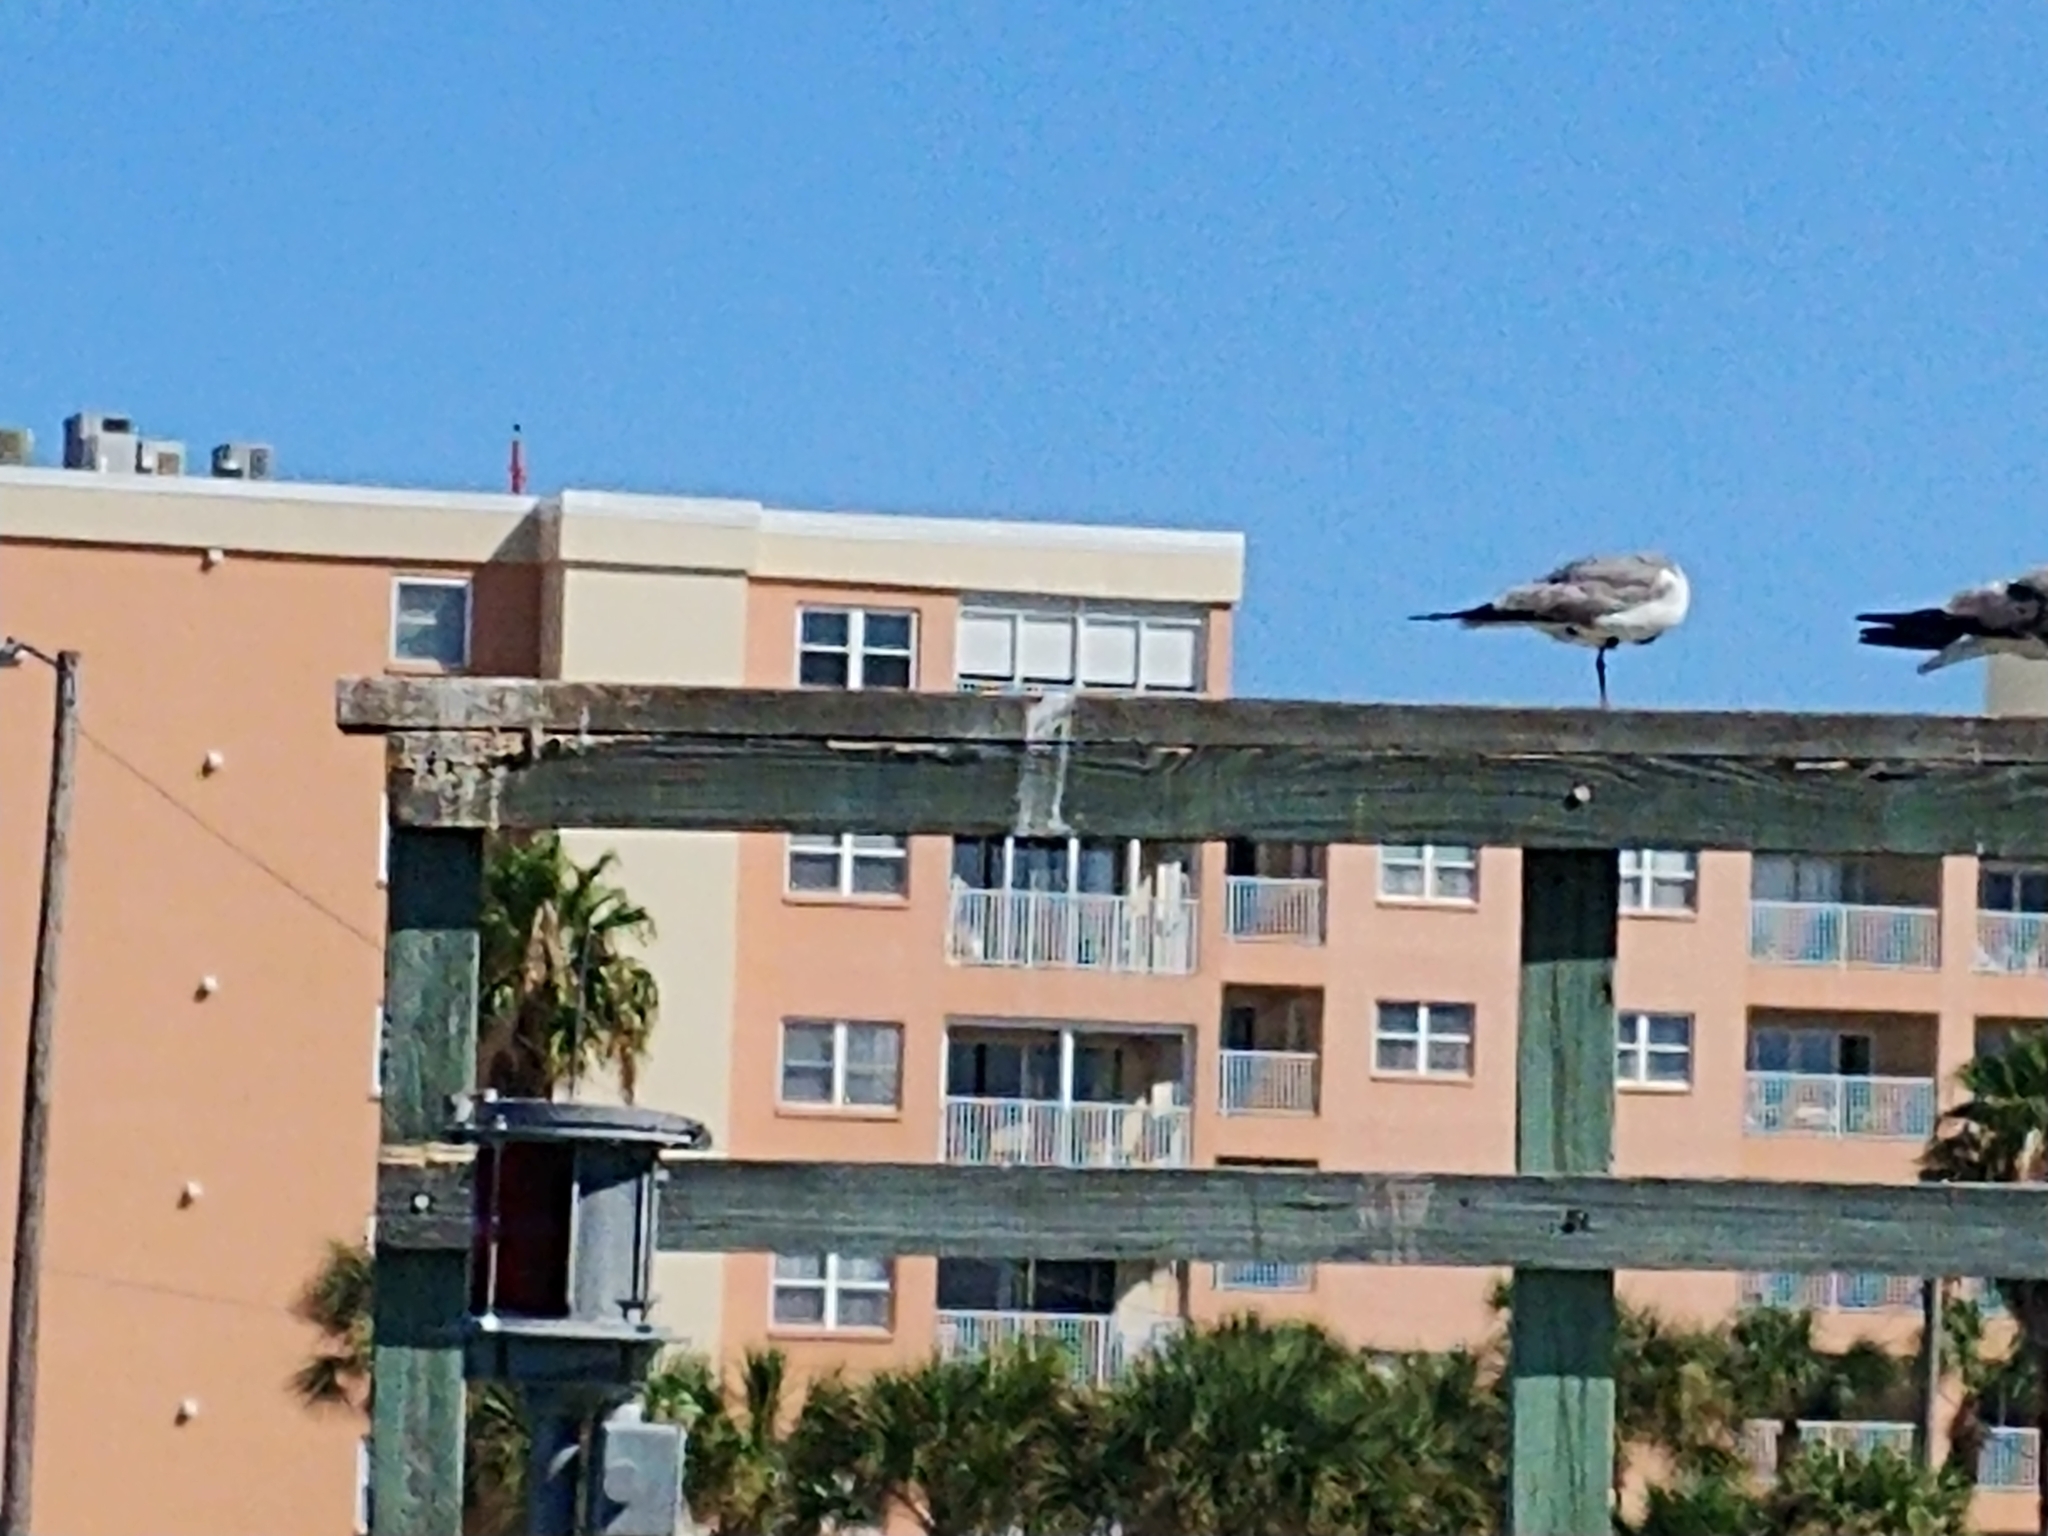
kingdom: Animalia
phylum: Chordata
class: Aves
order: Charadriiformes
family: Laridae
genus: Leucophaeus
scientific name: Leucophaeus atricilla
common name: Laughing gull
